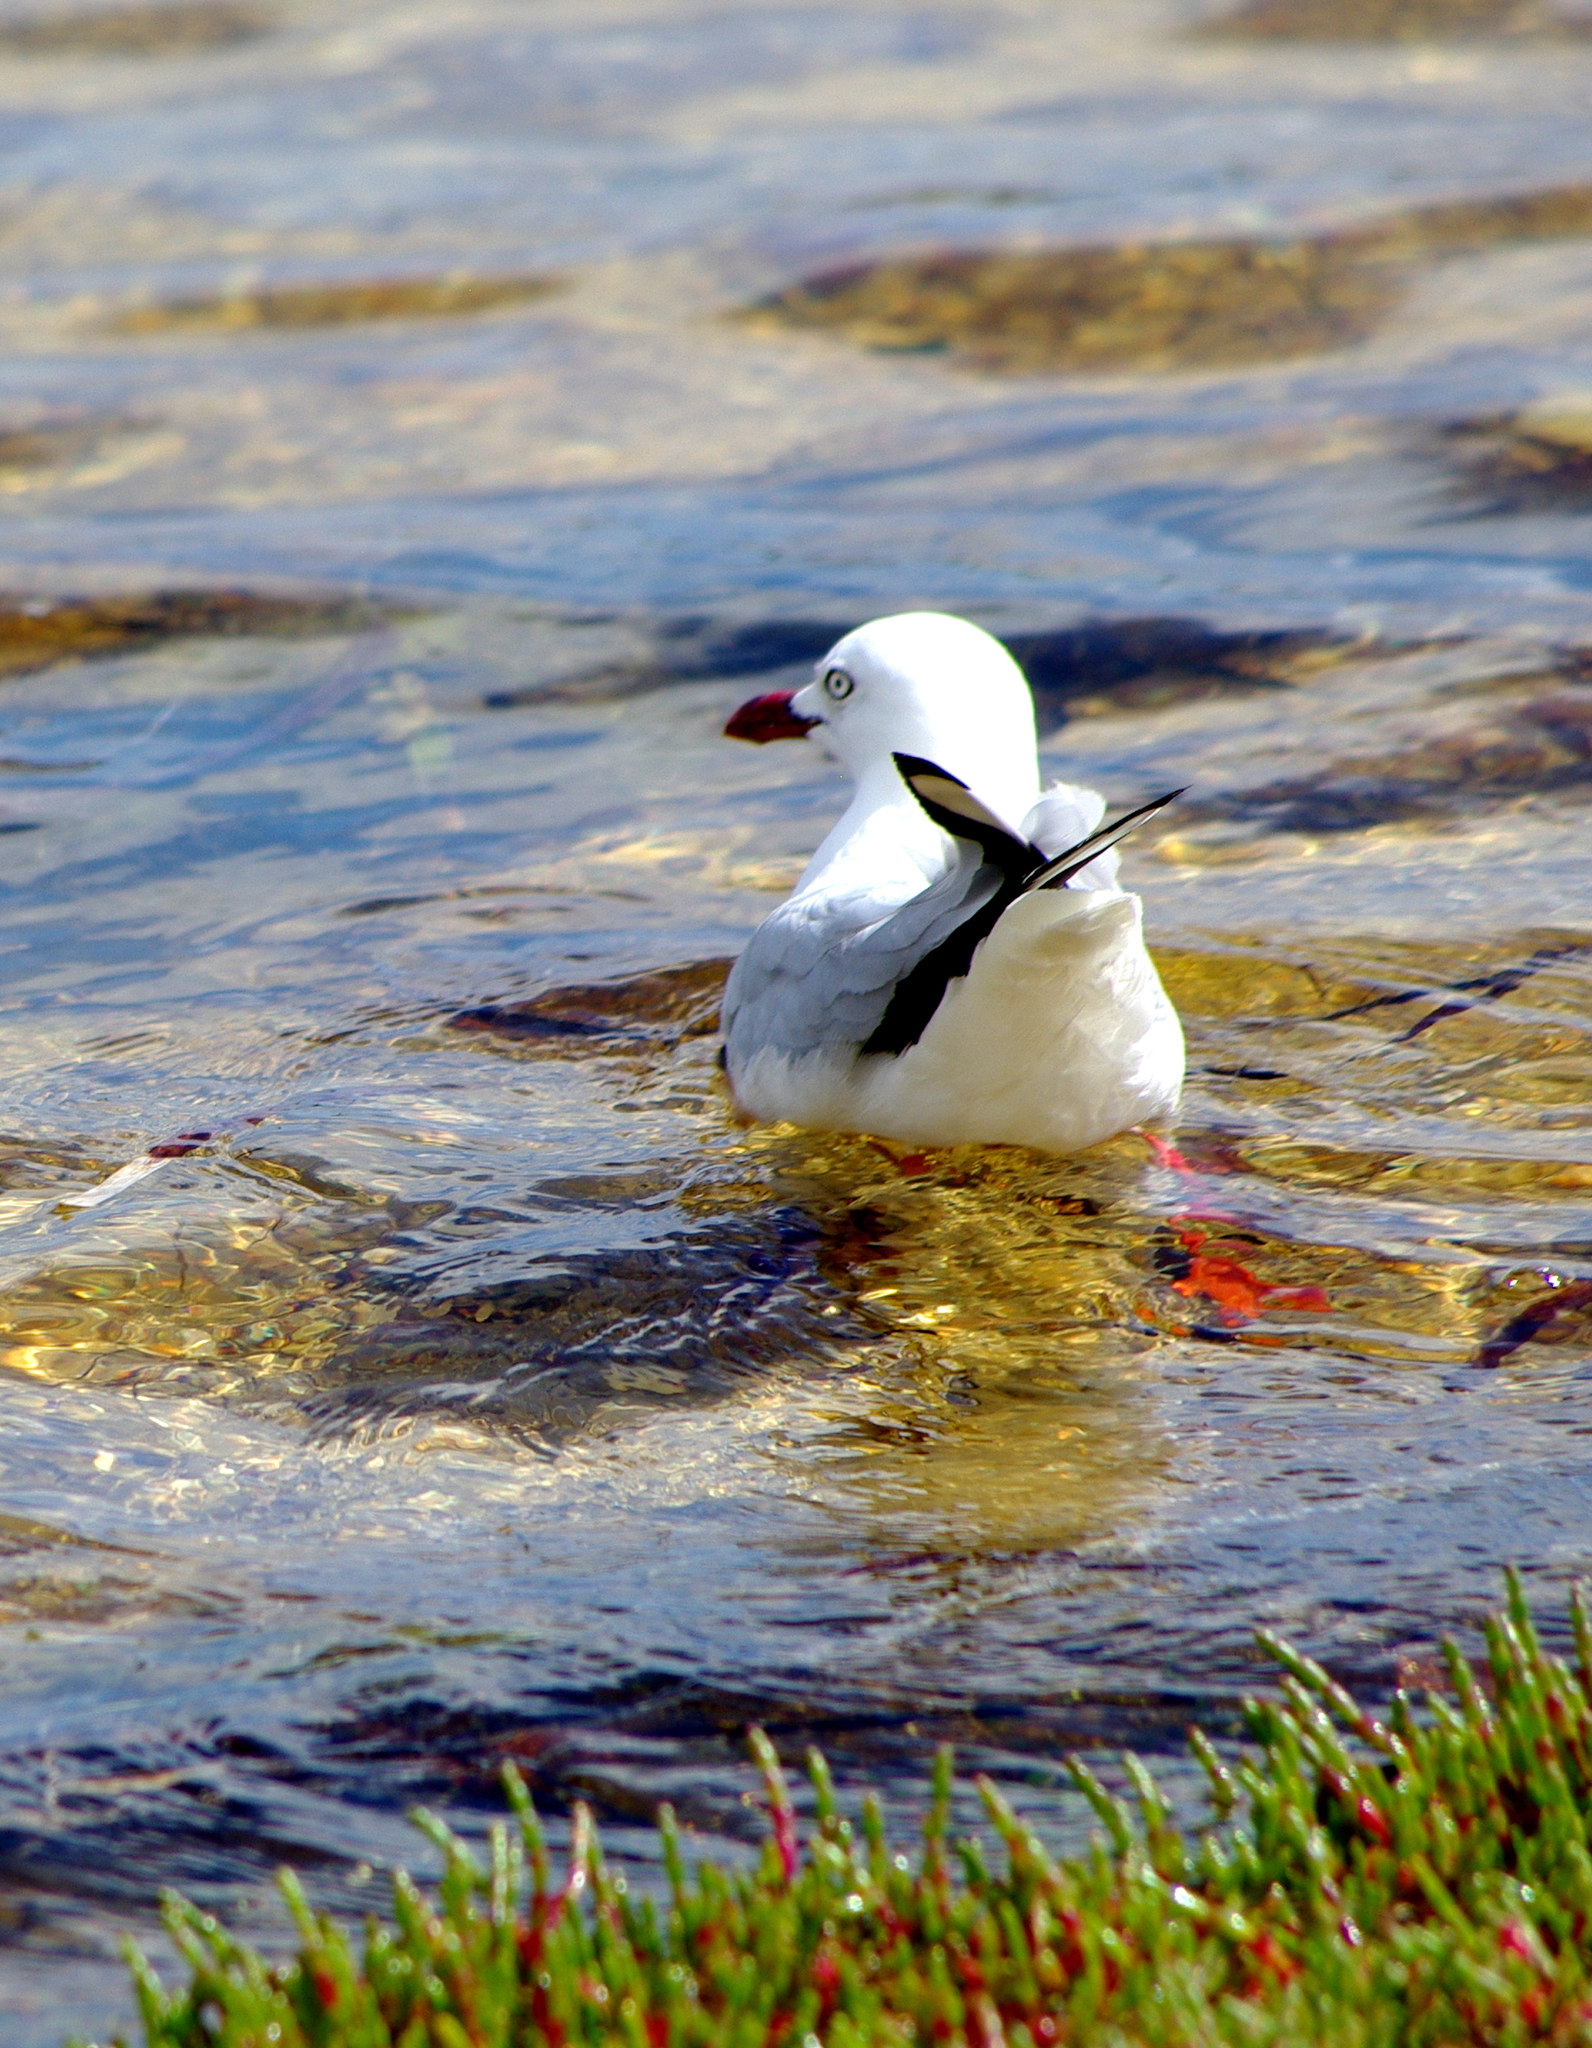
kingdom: Animalia
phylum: Chordata
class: Aves
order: Charadriiformes
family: Laridae
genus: Chroicocephalus
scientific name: Chroicocephalus novaehollandiae
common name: Silver gull
